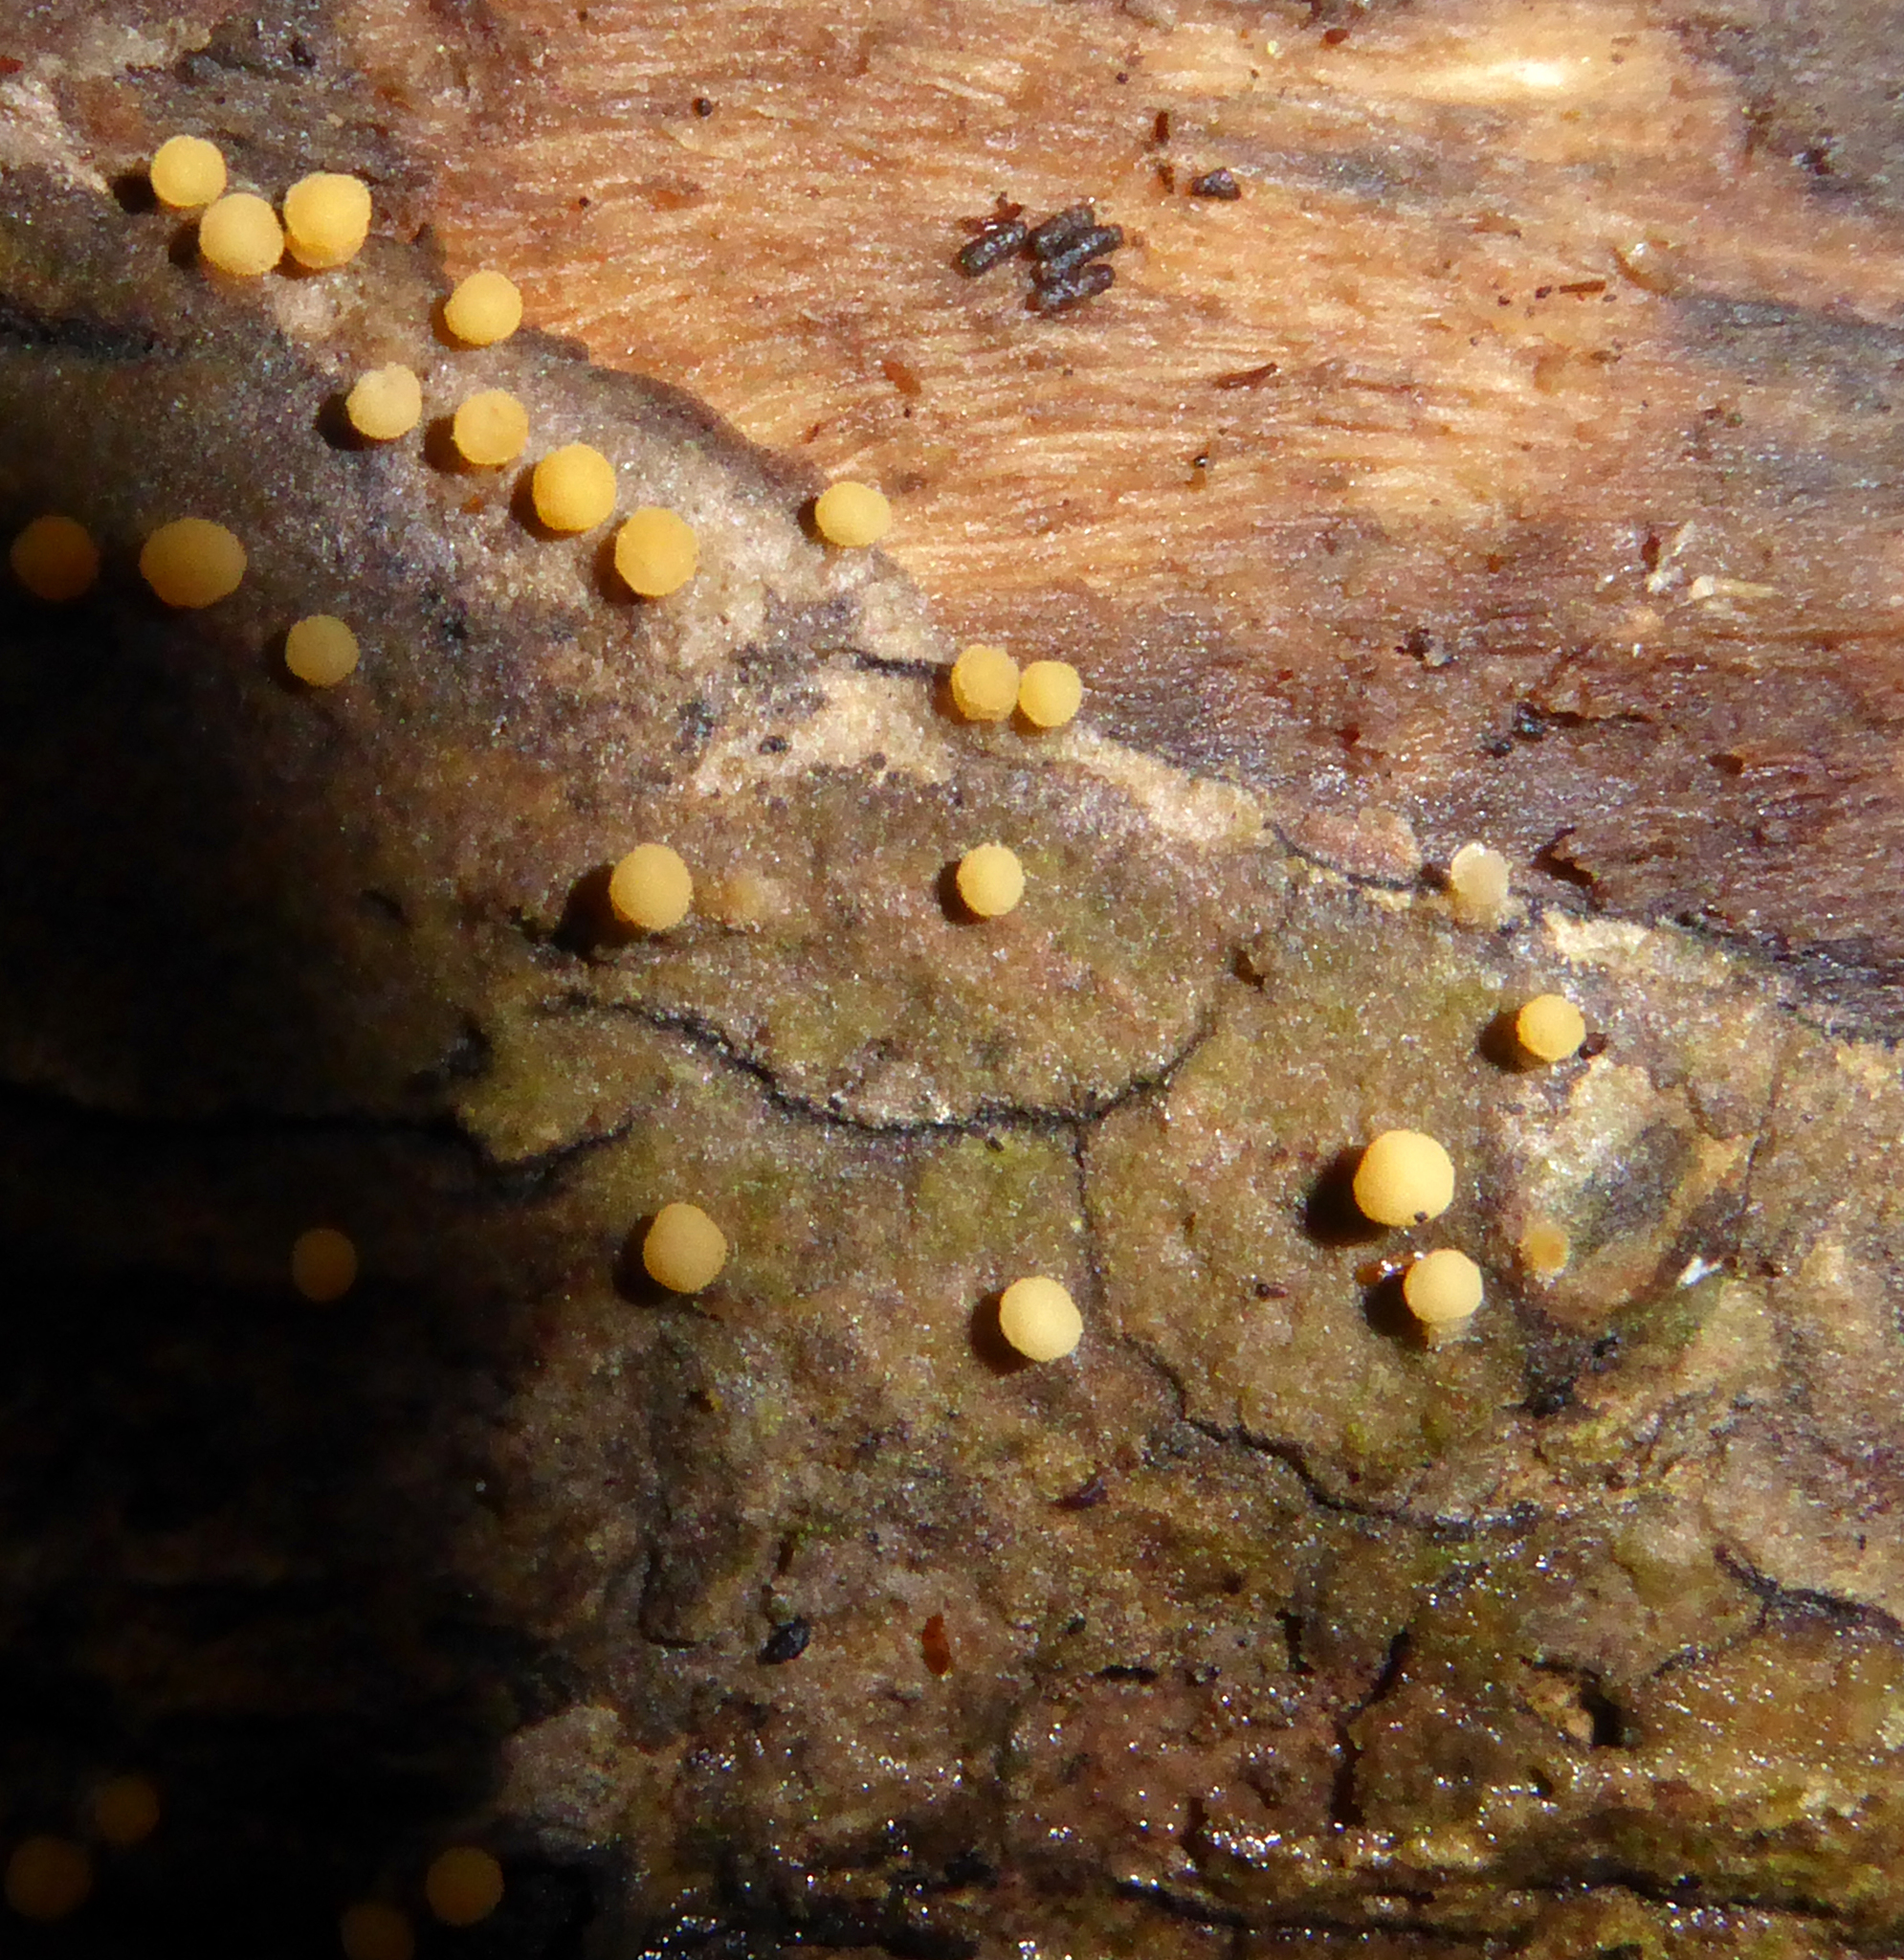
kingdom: Fungi
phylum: Ascomycota
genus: Bactridium
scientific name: Bactridium clavatum
